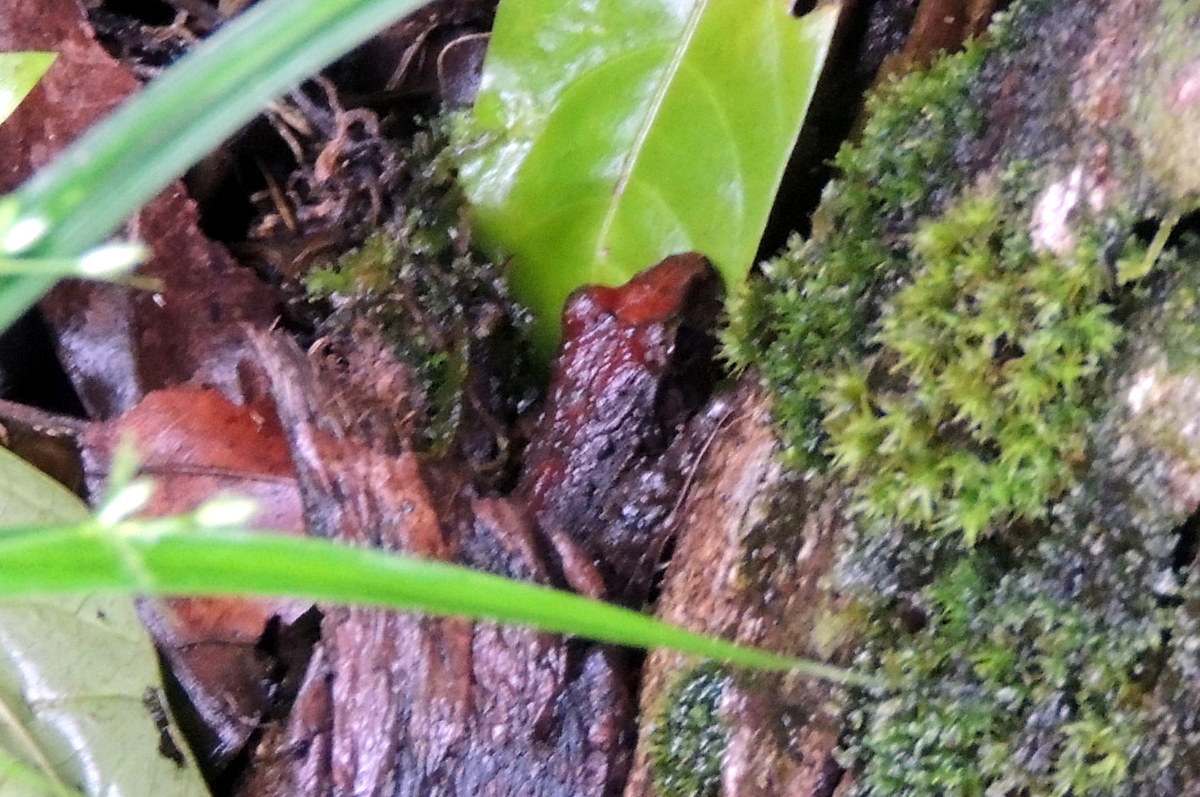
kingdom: Animalia
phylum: Chordata
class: Amphibia
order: Anura
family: Leptodactylidae
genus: Leptodactylus
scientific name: Leptodactylus melanonotus
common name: Fringe-toed foamfrog
